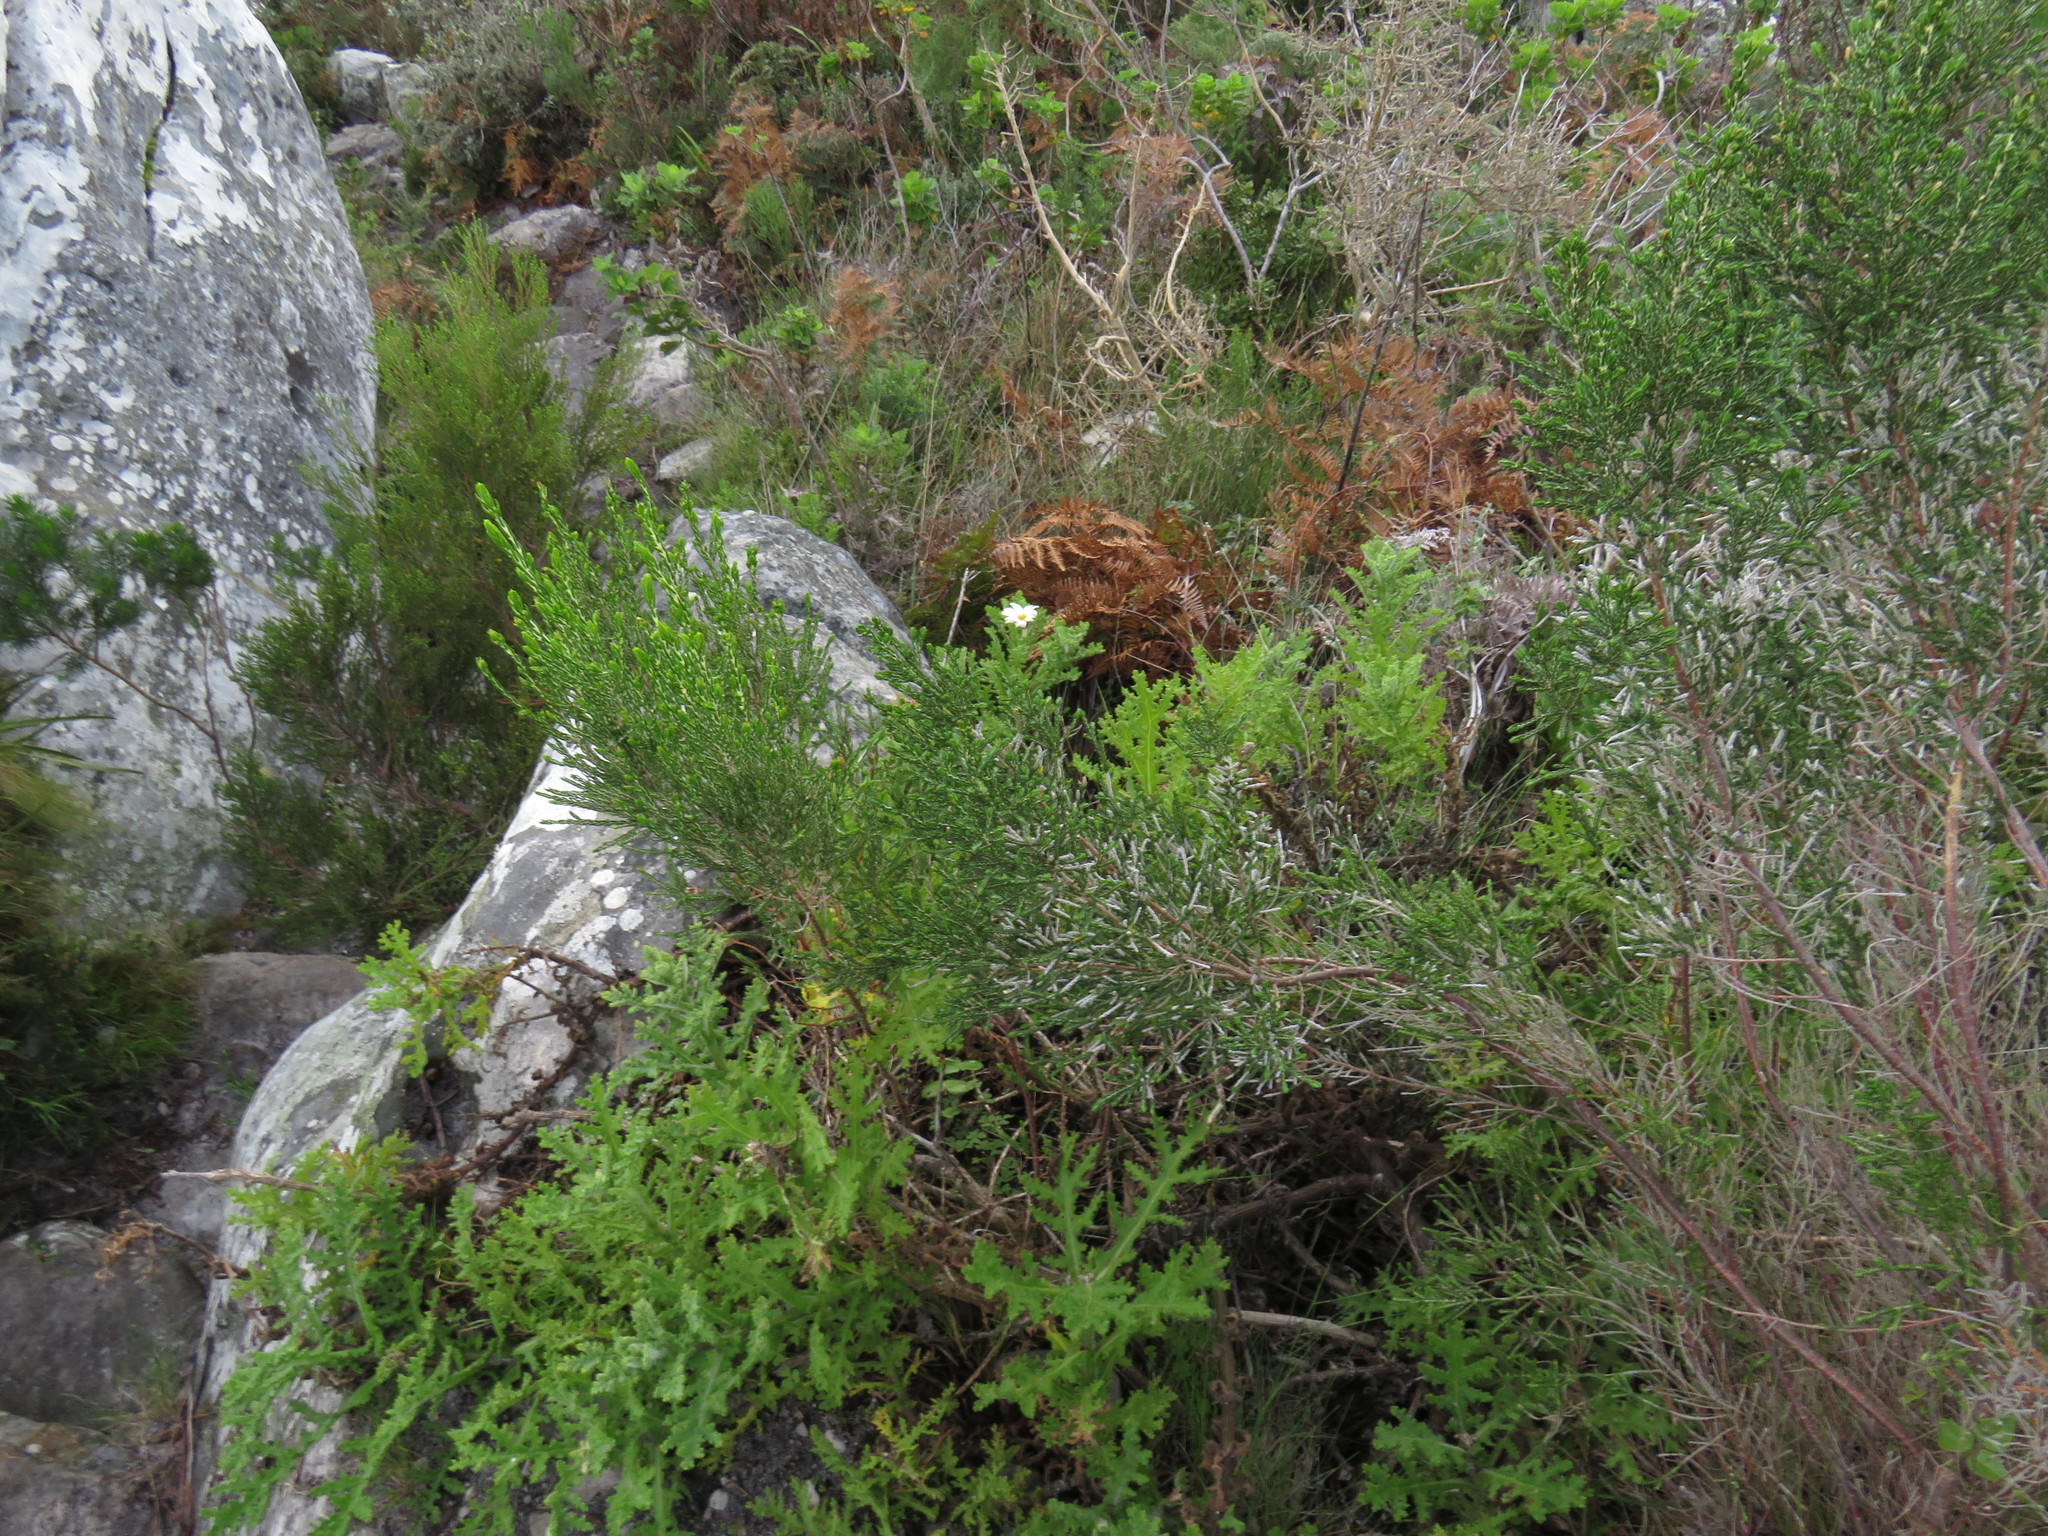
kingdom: Plantae
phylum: Tracheophyta
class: Magnoliopsida
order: Asterales
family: Asteraceae
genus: Arctotis
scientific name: Arctotis aspera
